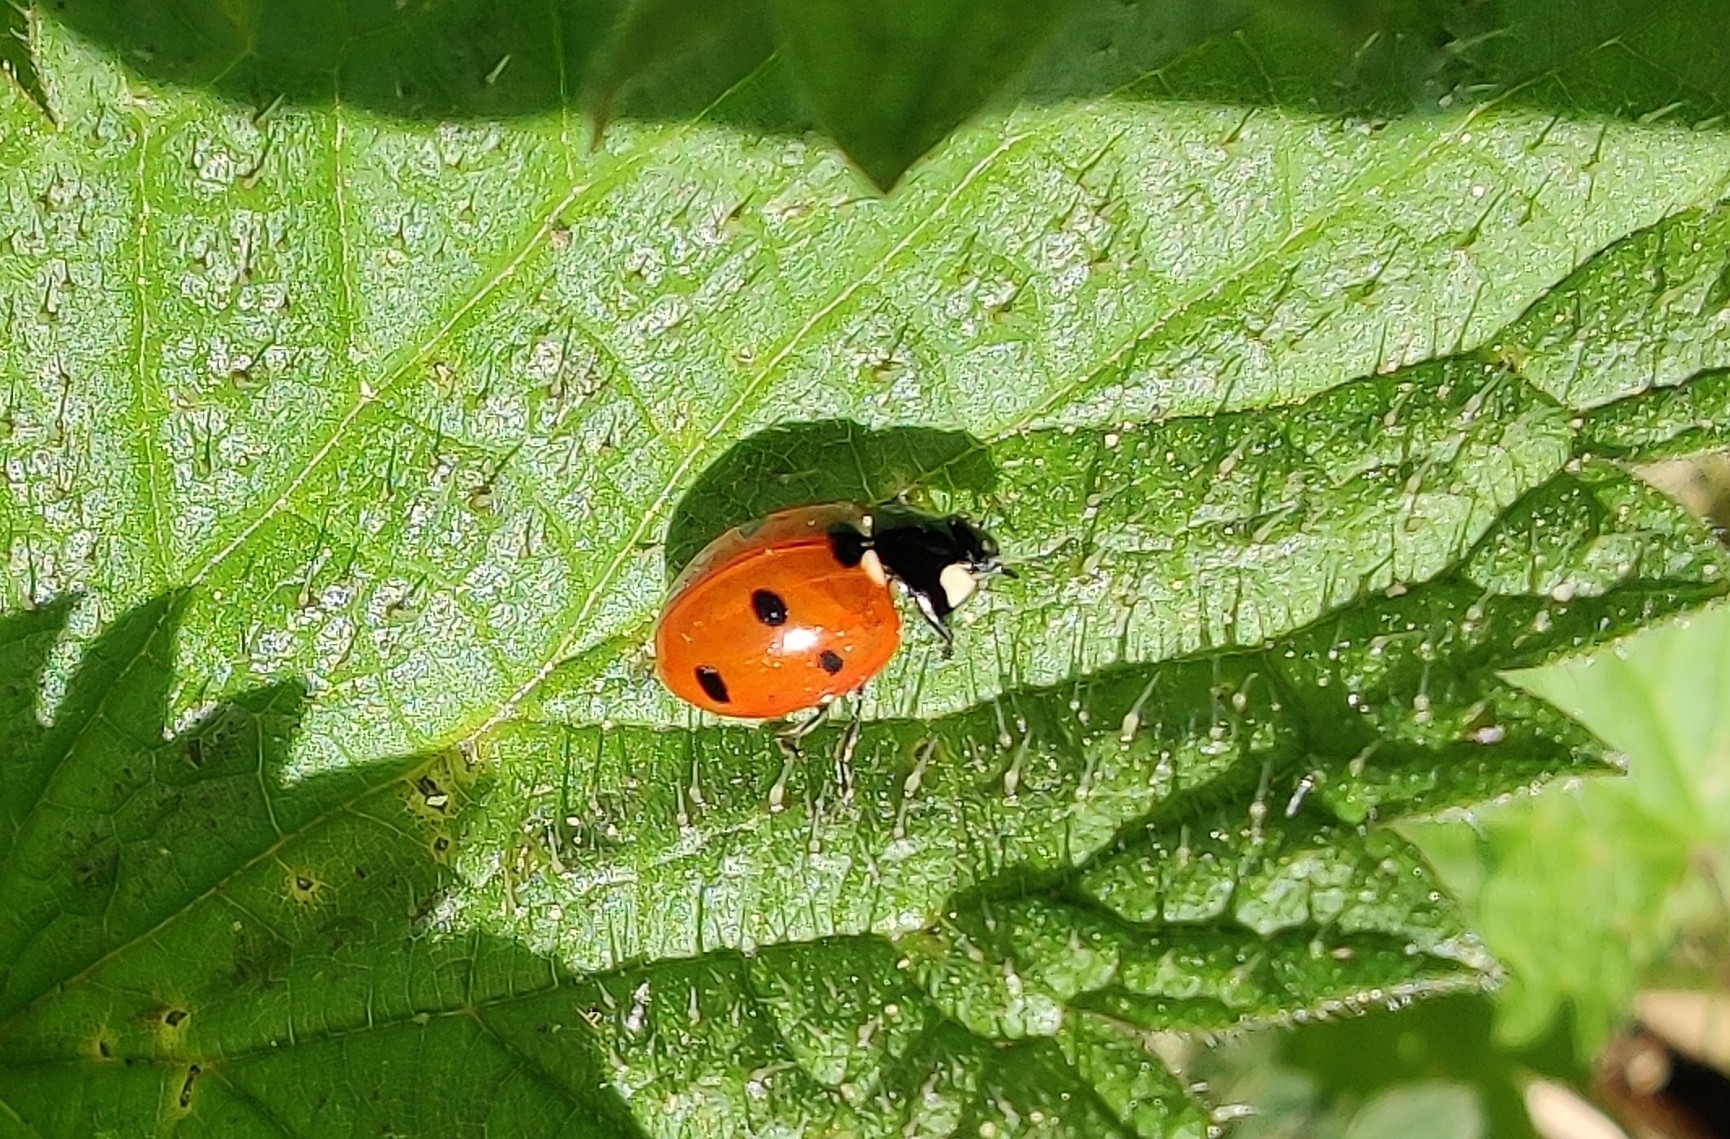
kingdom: Animalia
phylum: Arthropoda
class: Insecta
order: Coleoptera
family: Coccinellidae
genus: Coccinella
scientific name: Coccinella septempunctata
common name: Sevenspotted lady beetle
